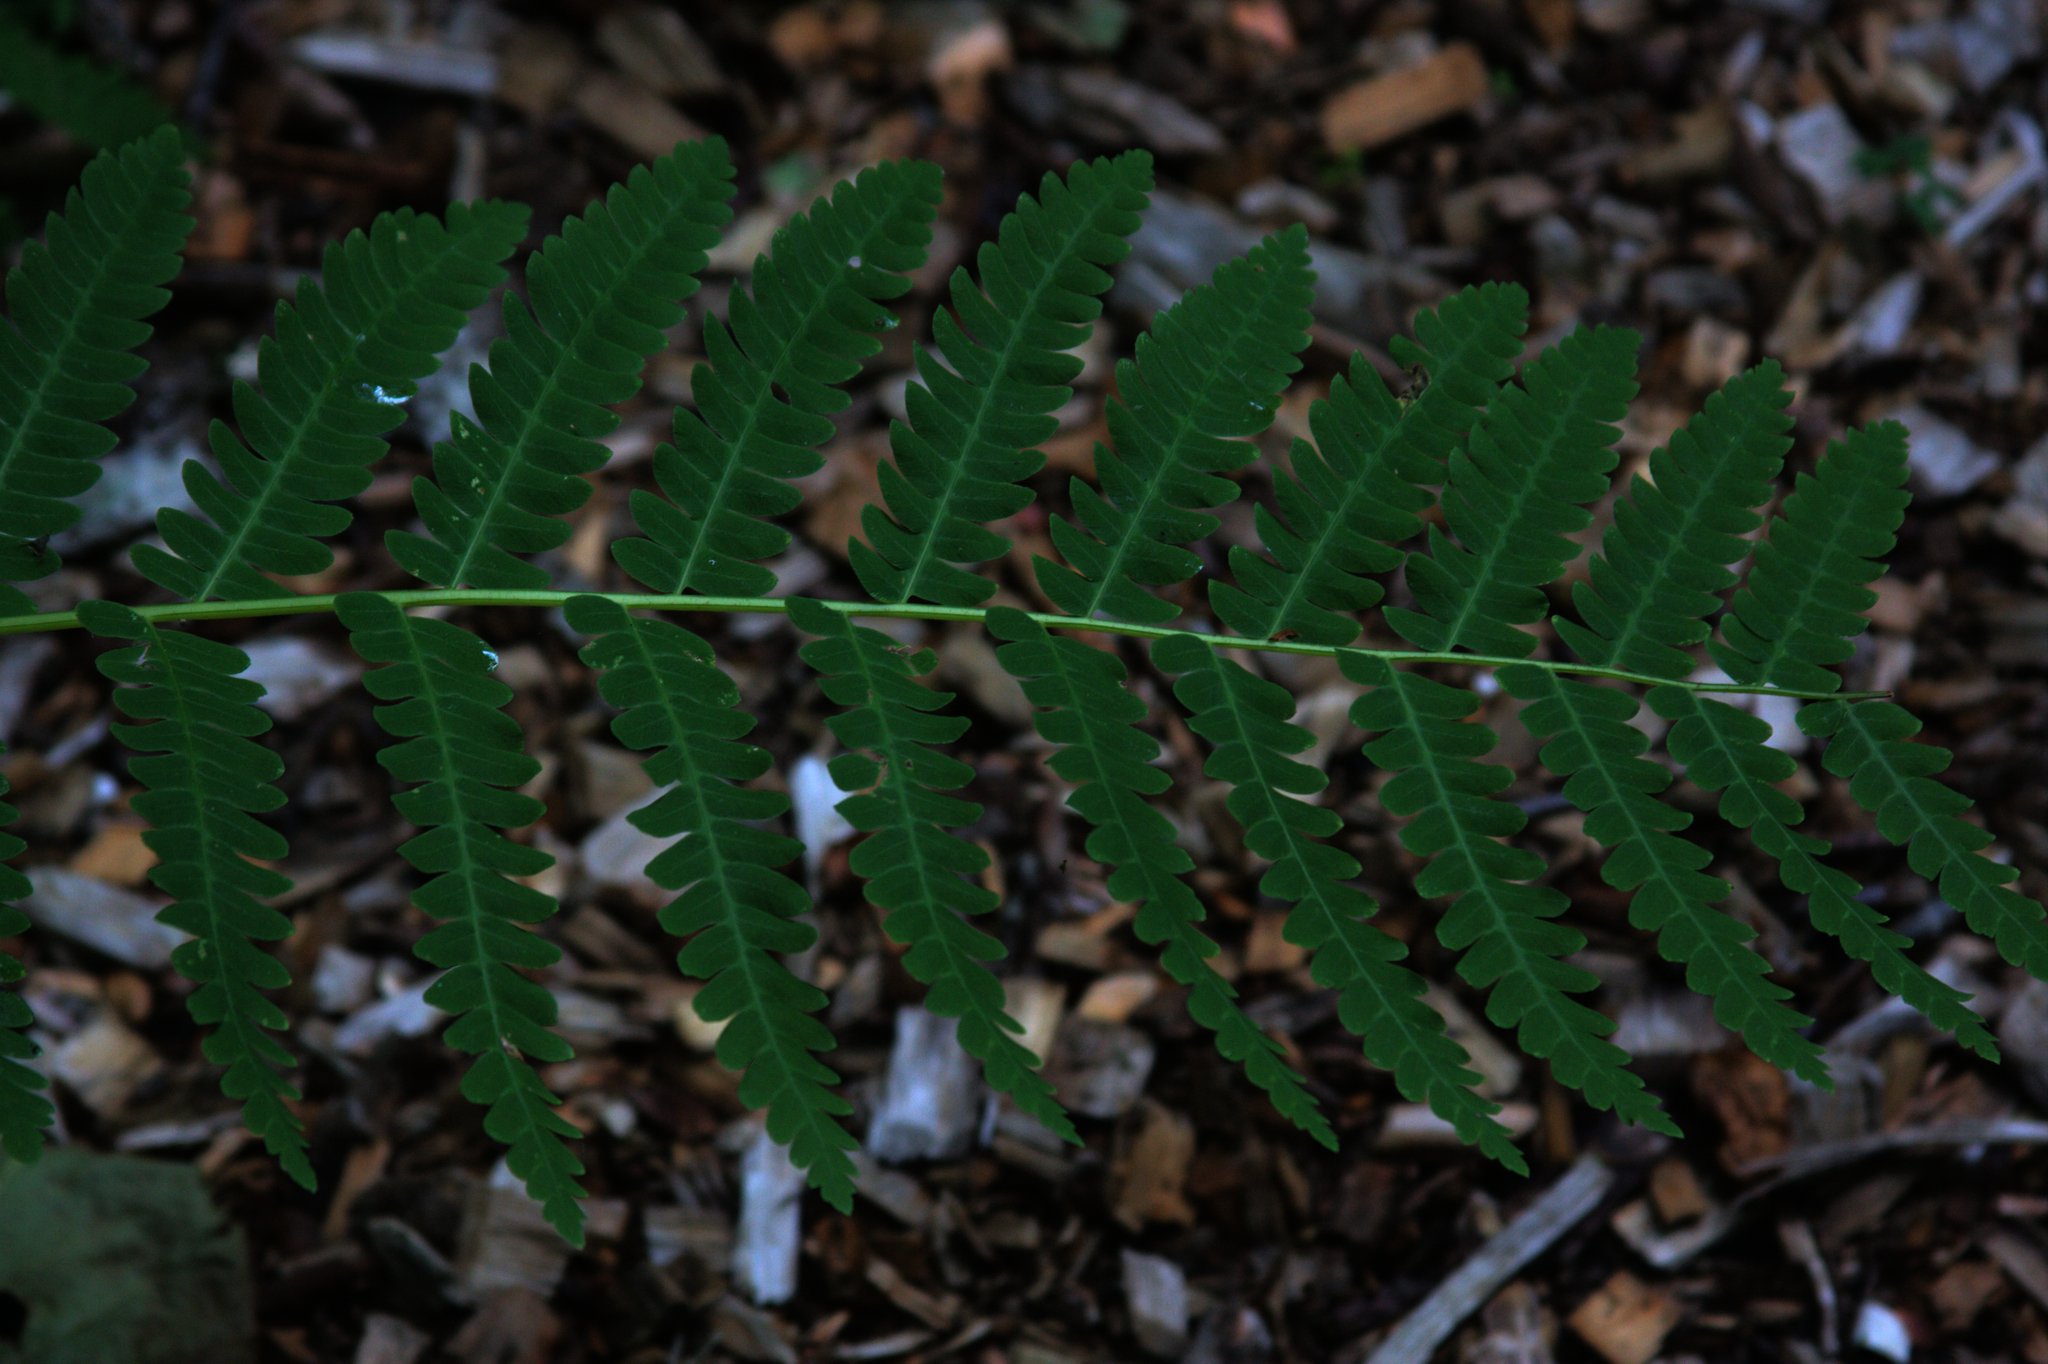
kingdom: Plantae
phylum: Tracheophyta
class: Polypodiopsida
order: Osmundales
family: Osmundaceae
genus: Claytosmunda
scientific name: Claytosmunda claytoniana
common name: Clayton's fern
